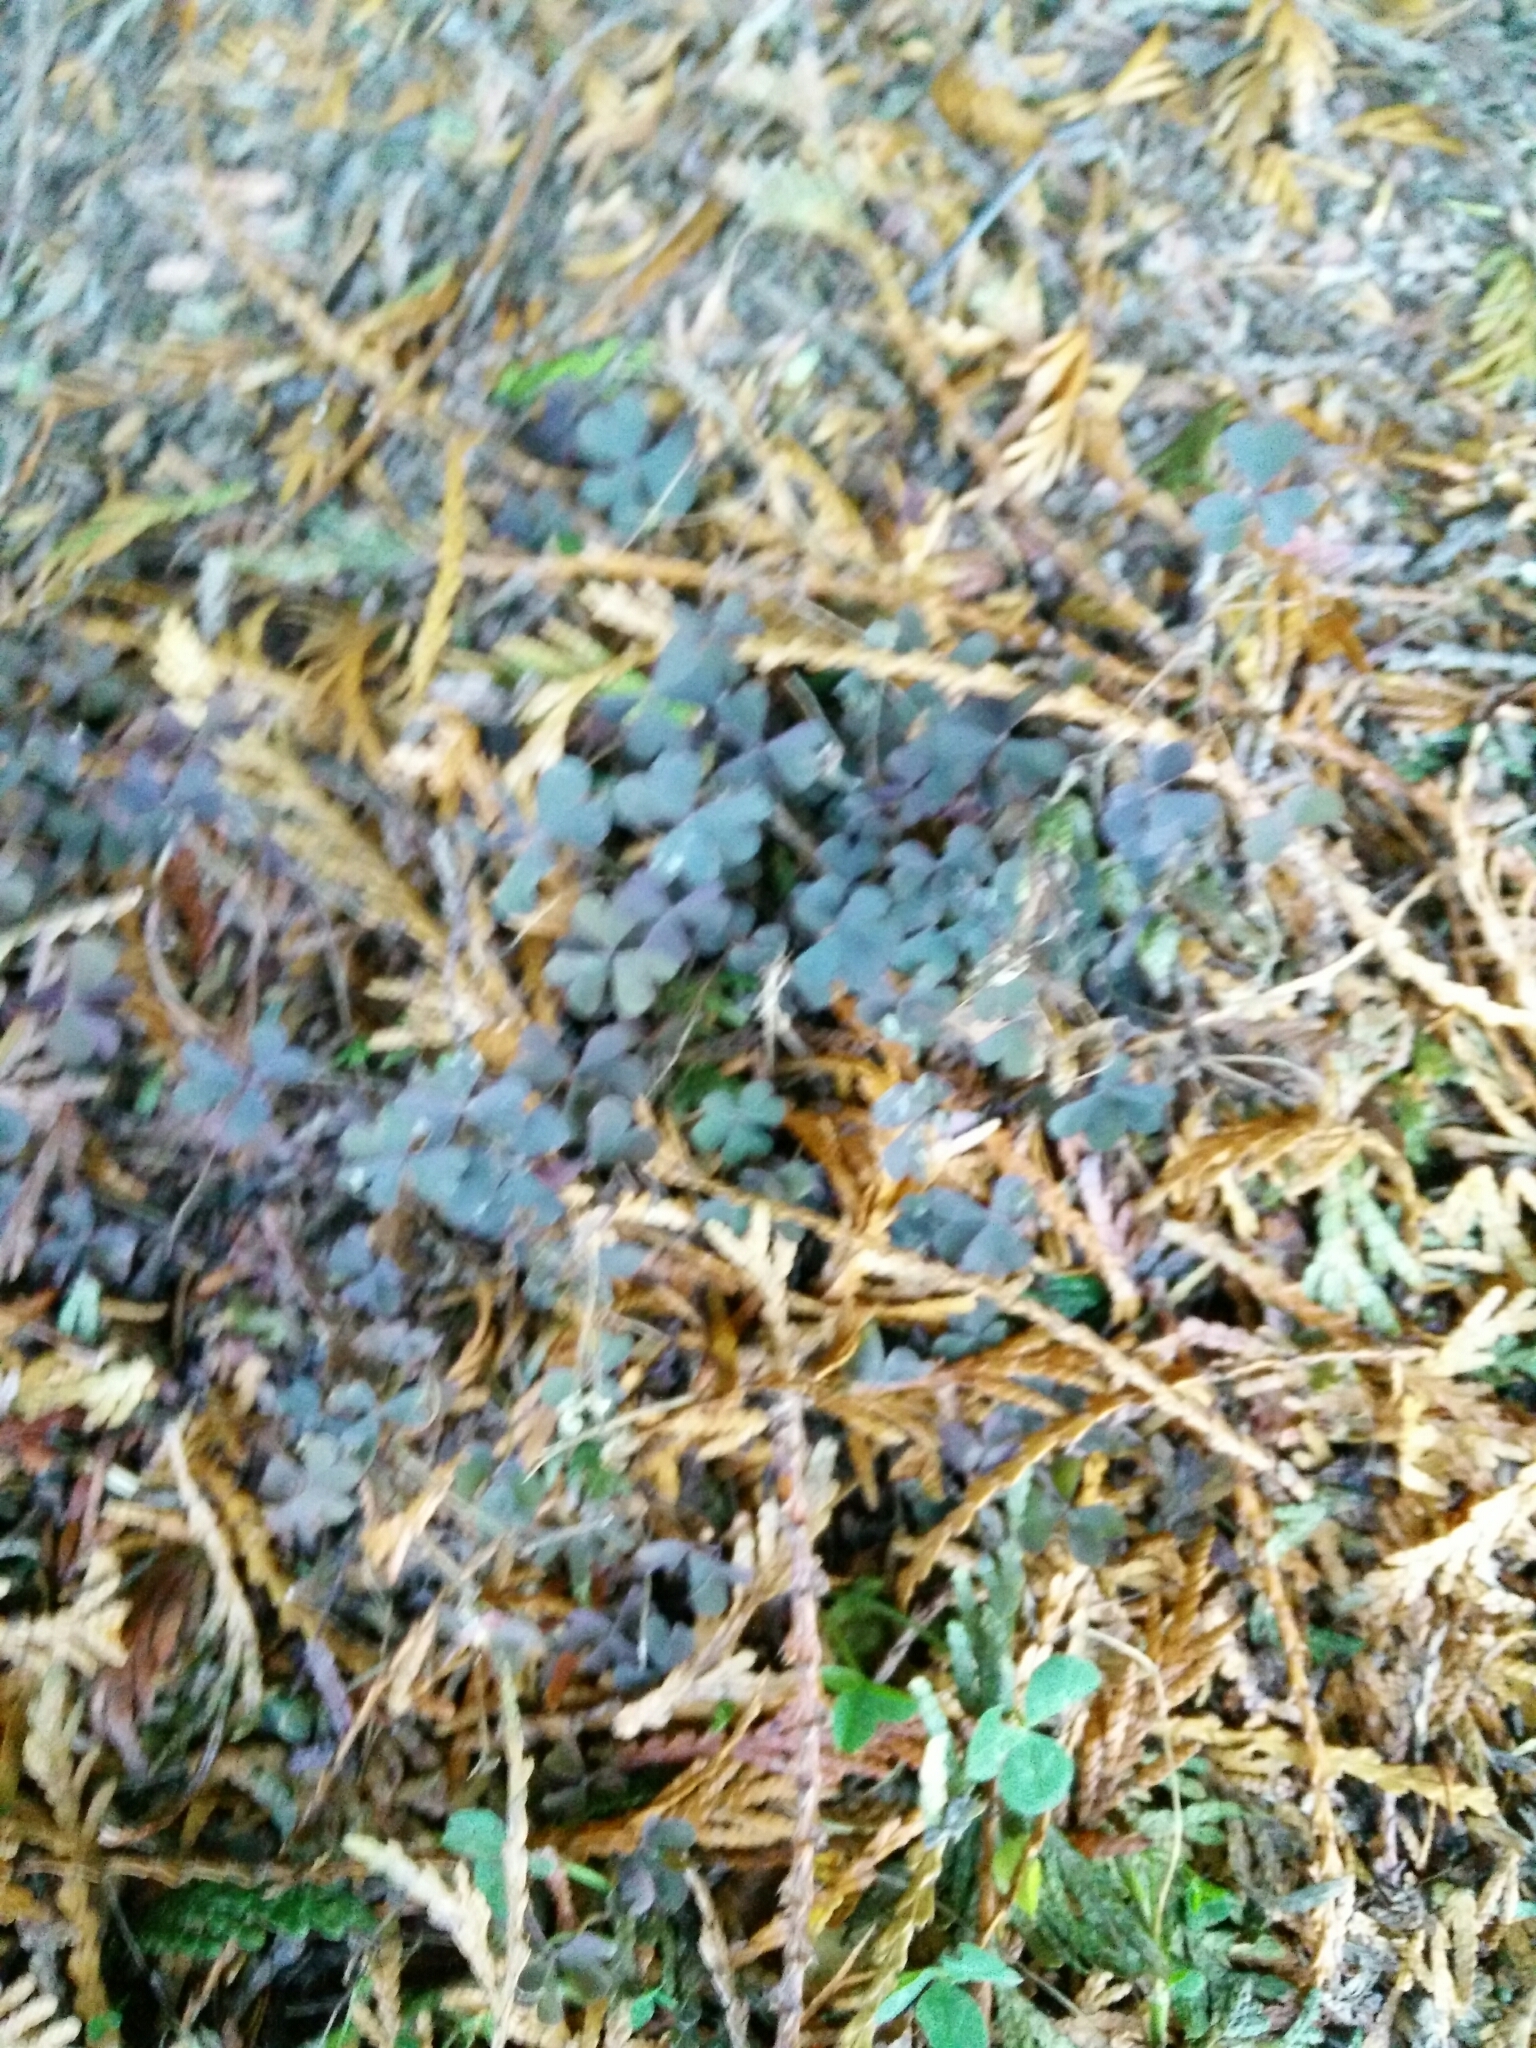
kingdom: Plantae
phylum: Tracheophyta
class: Magnoliopsida
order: Oxalidales
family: Oxalidaceae
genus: Oxalis
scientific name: Oxalis corniculata
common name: Procumbent yellow-sorrel
